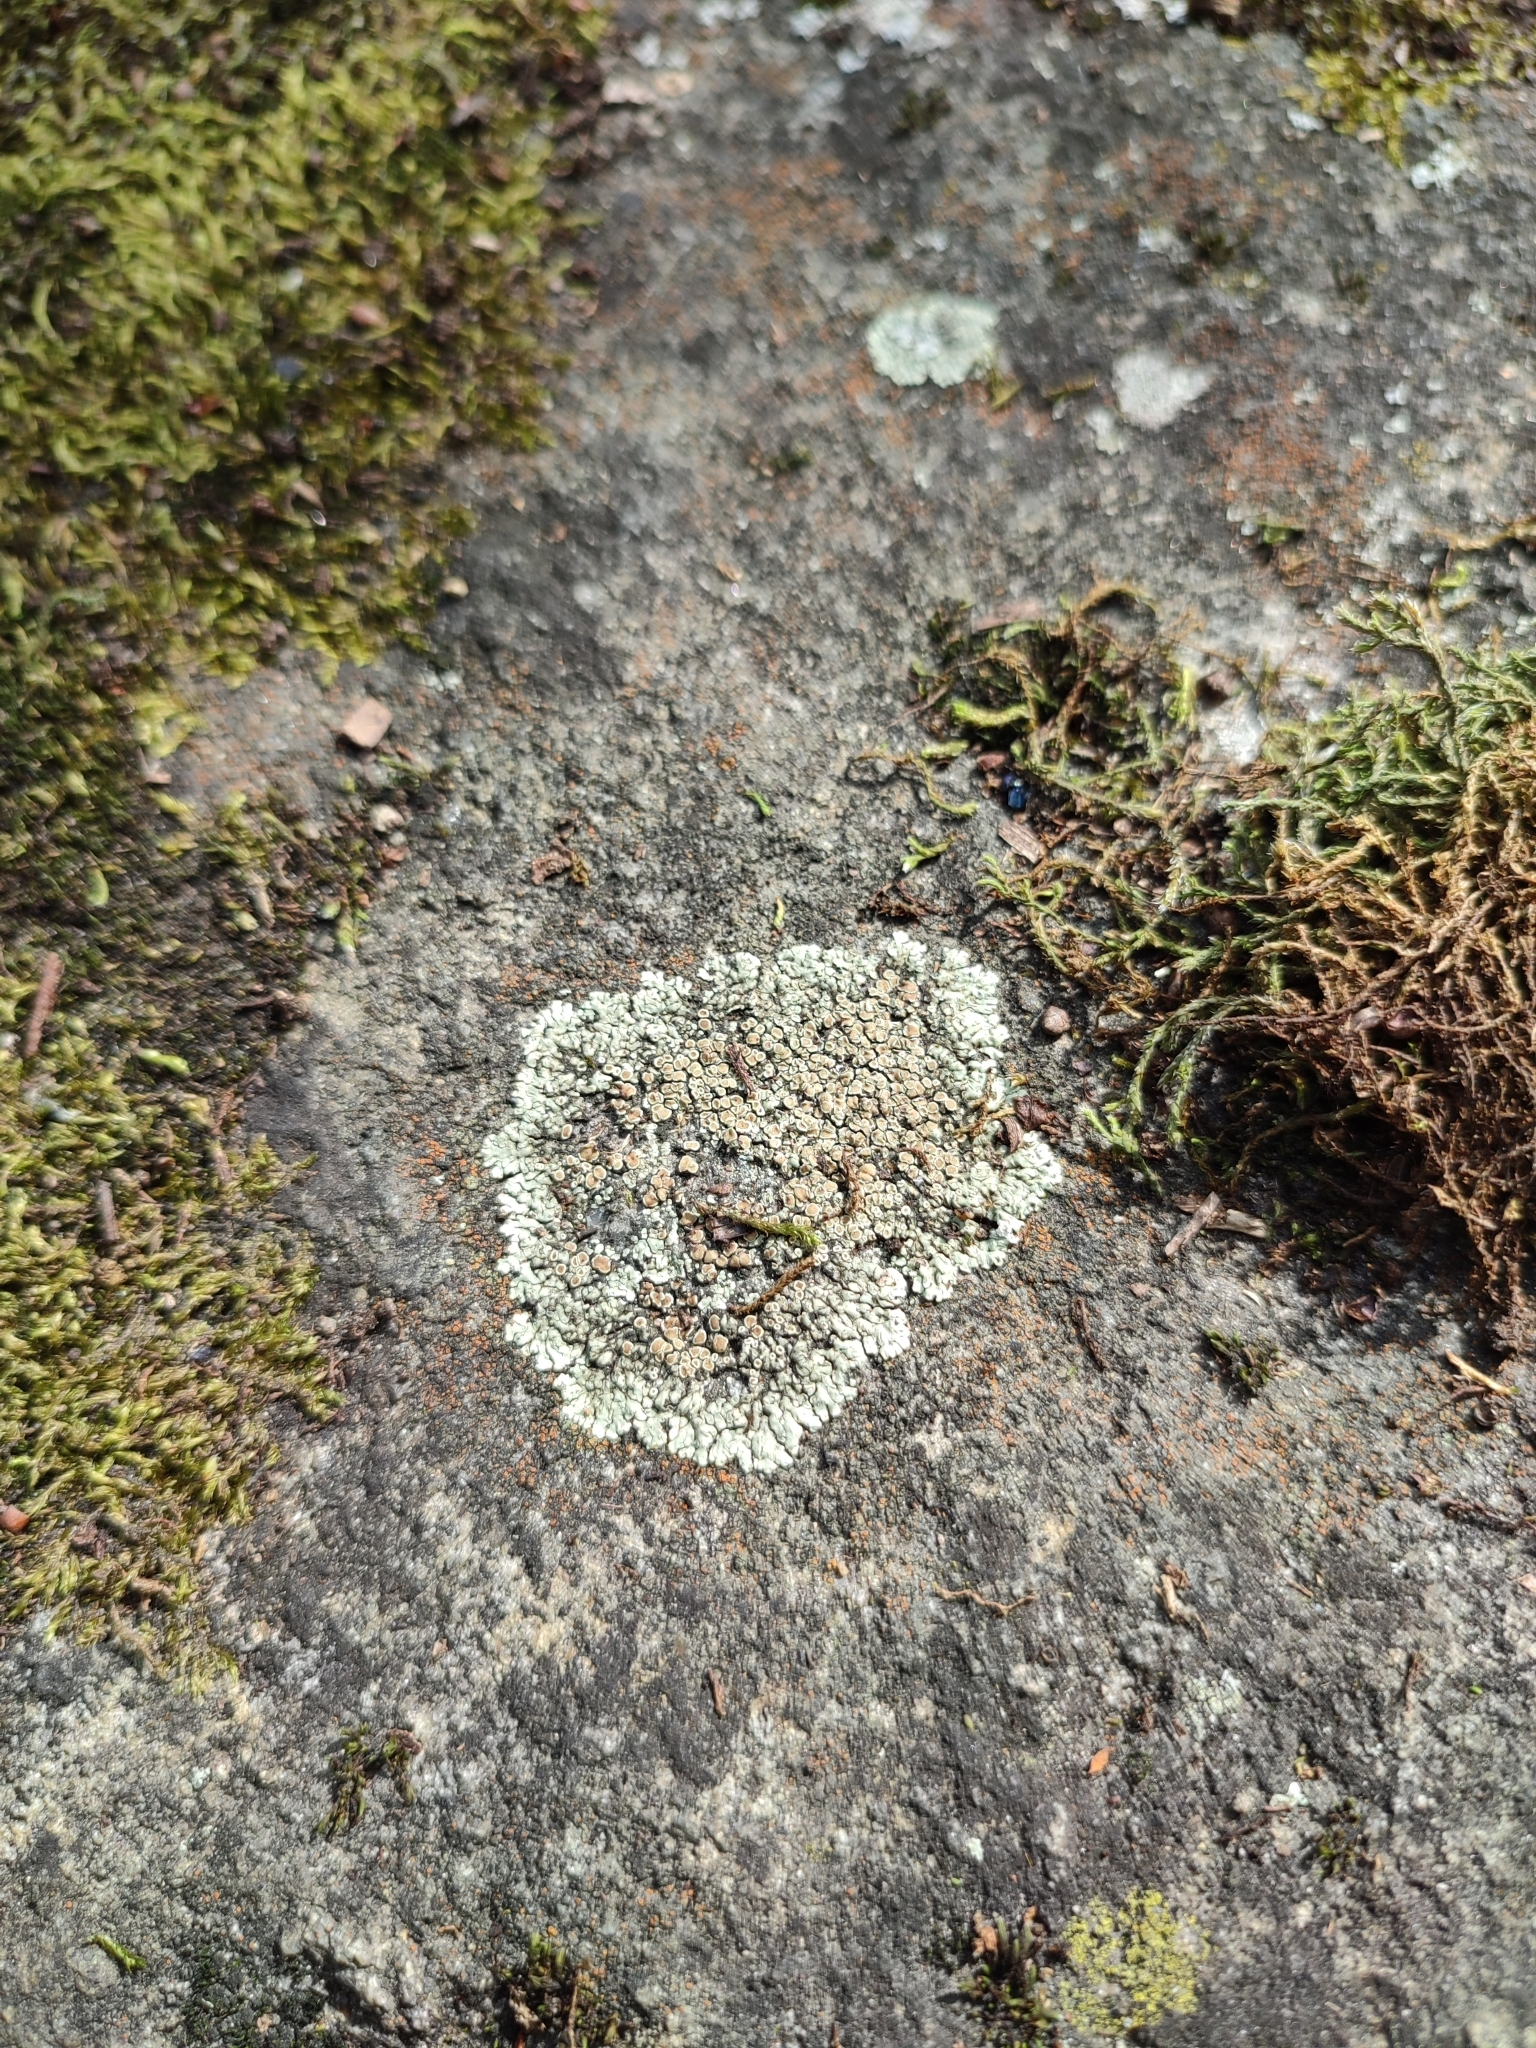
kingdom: Fungi
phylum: Ascomycota
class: Lecanoromycetes
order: Lecanorales
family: Lecanoraceae
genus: Protoparmeliopsis
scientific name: Protoparmeliopsis muralis
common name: Stonewall rim lichen
